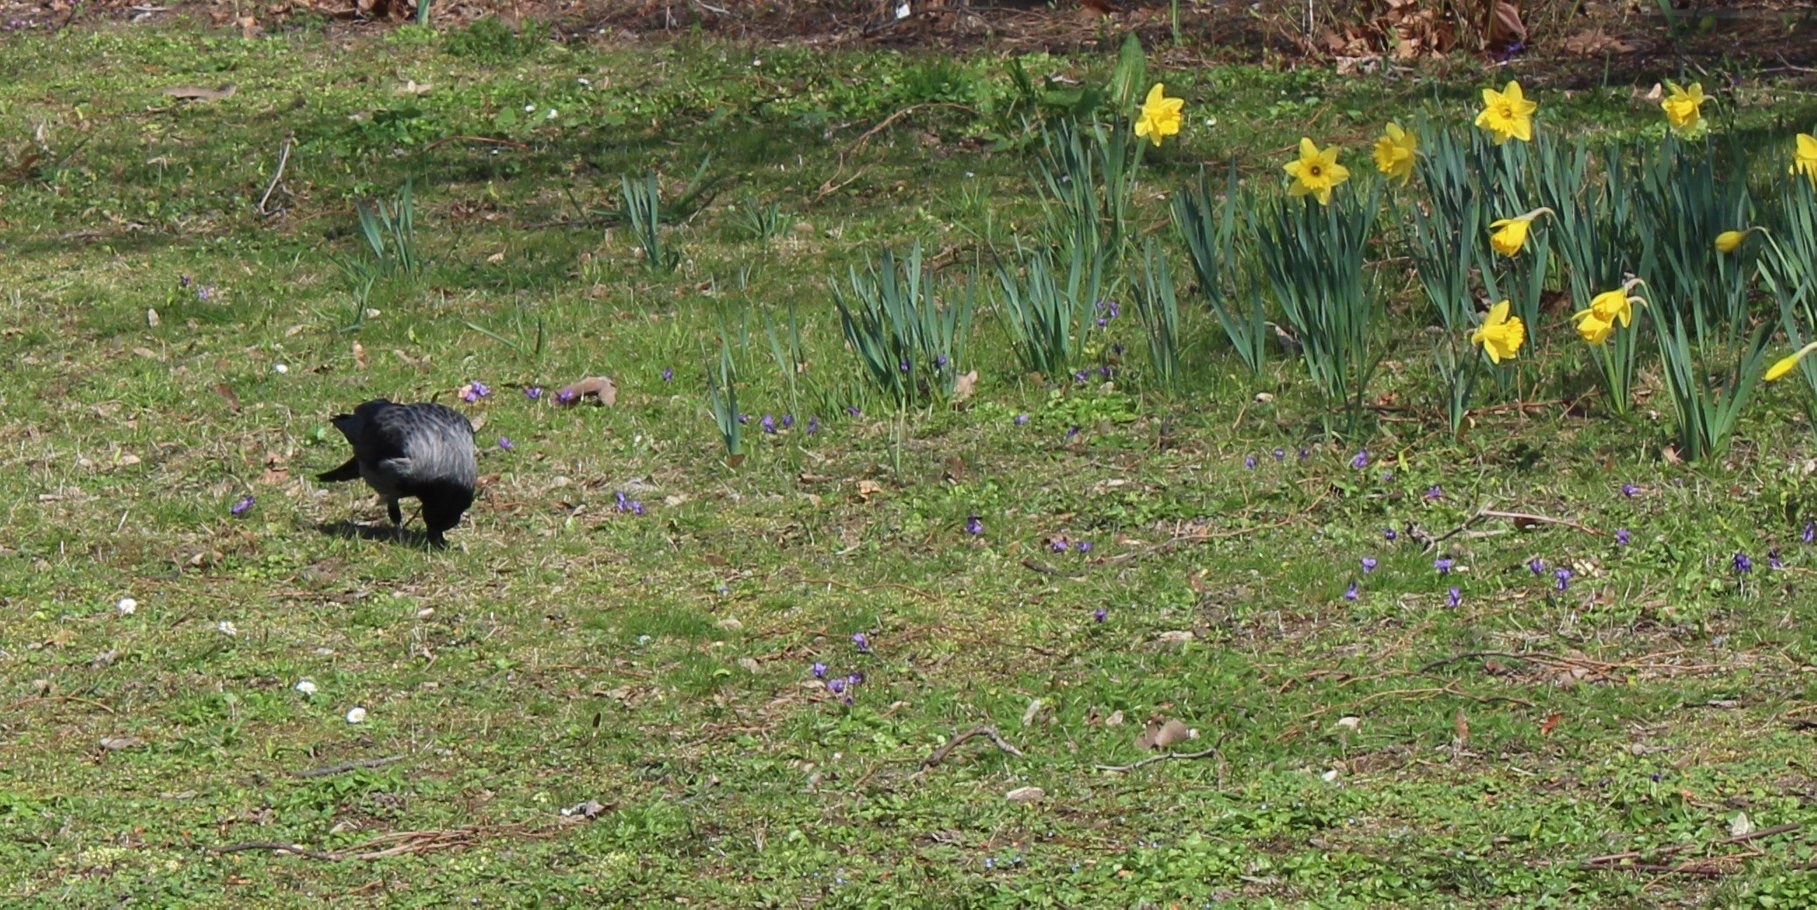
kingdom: Animalia
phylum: Chordata
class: Aves
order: Passeriformes
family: Corvidae
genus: Corvus
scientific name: Corvus
